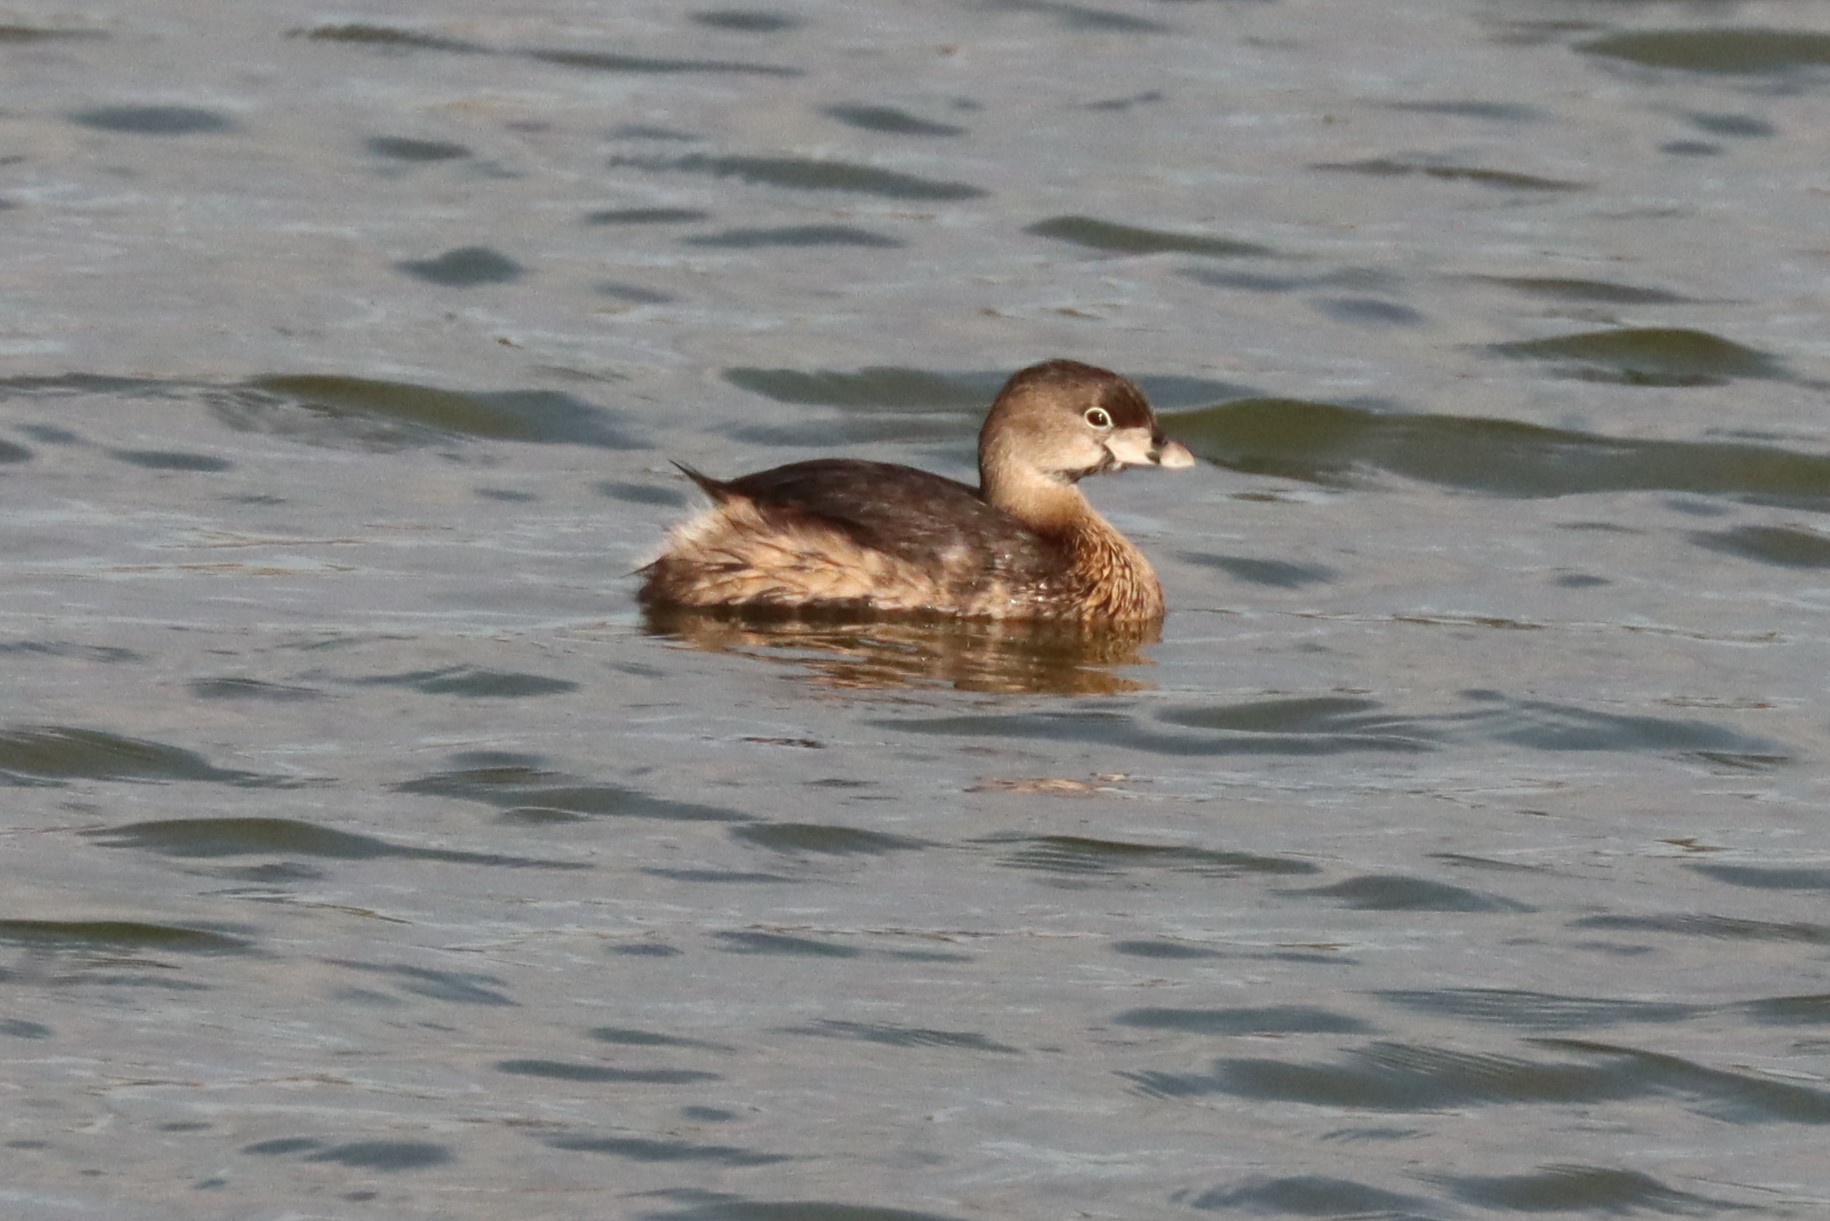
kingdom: Animalia
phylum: Chordata
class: Aves
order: Podicipediformes
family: Podicipedidae
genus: Podilymbus
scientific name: Podilymbus podiceps
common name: Pied-billed grebe
